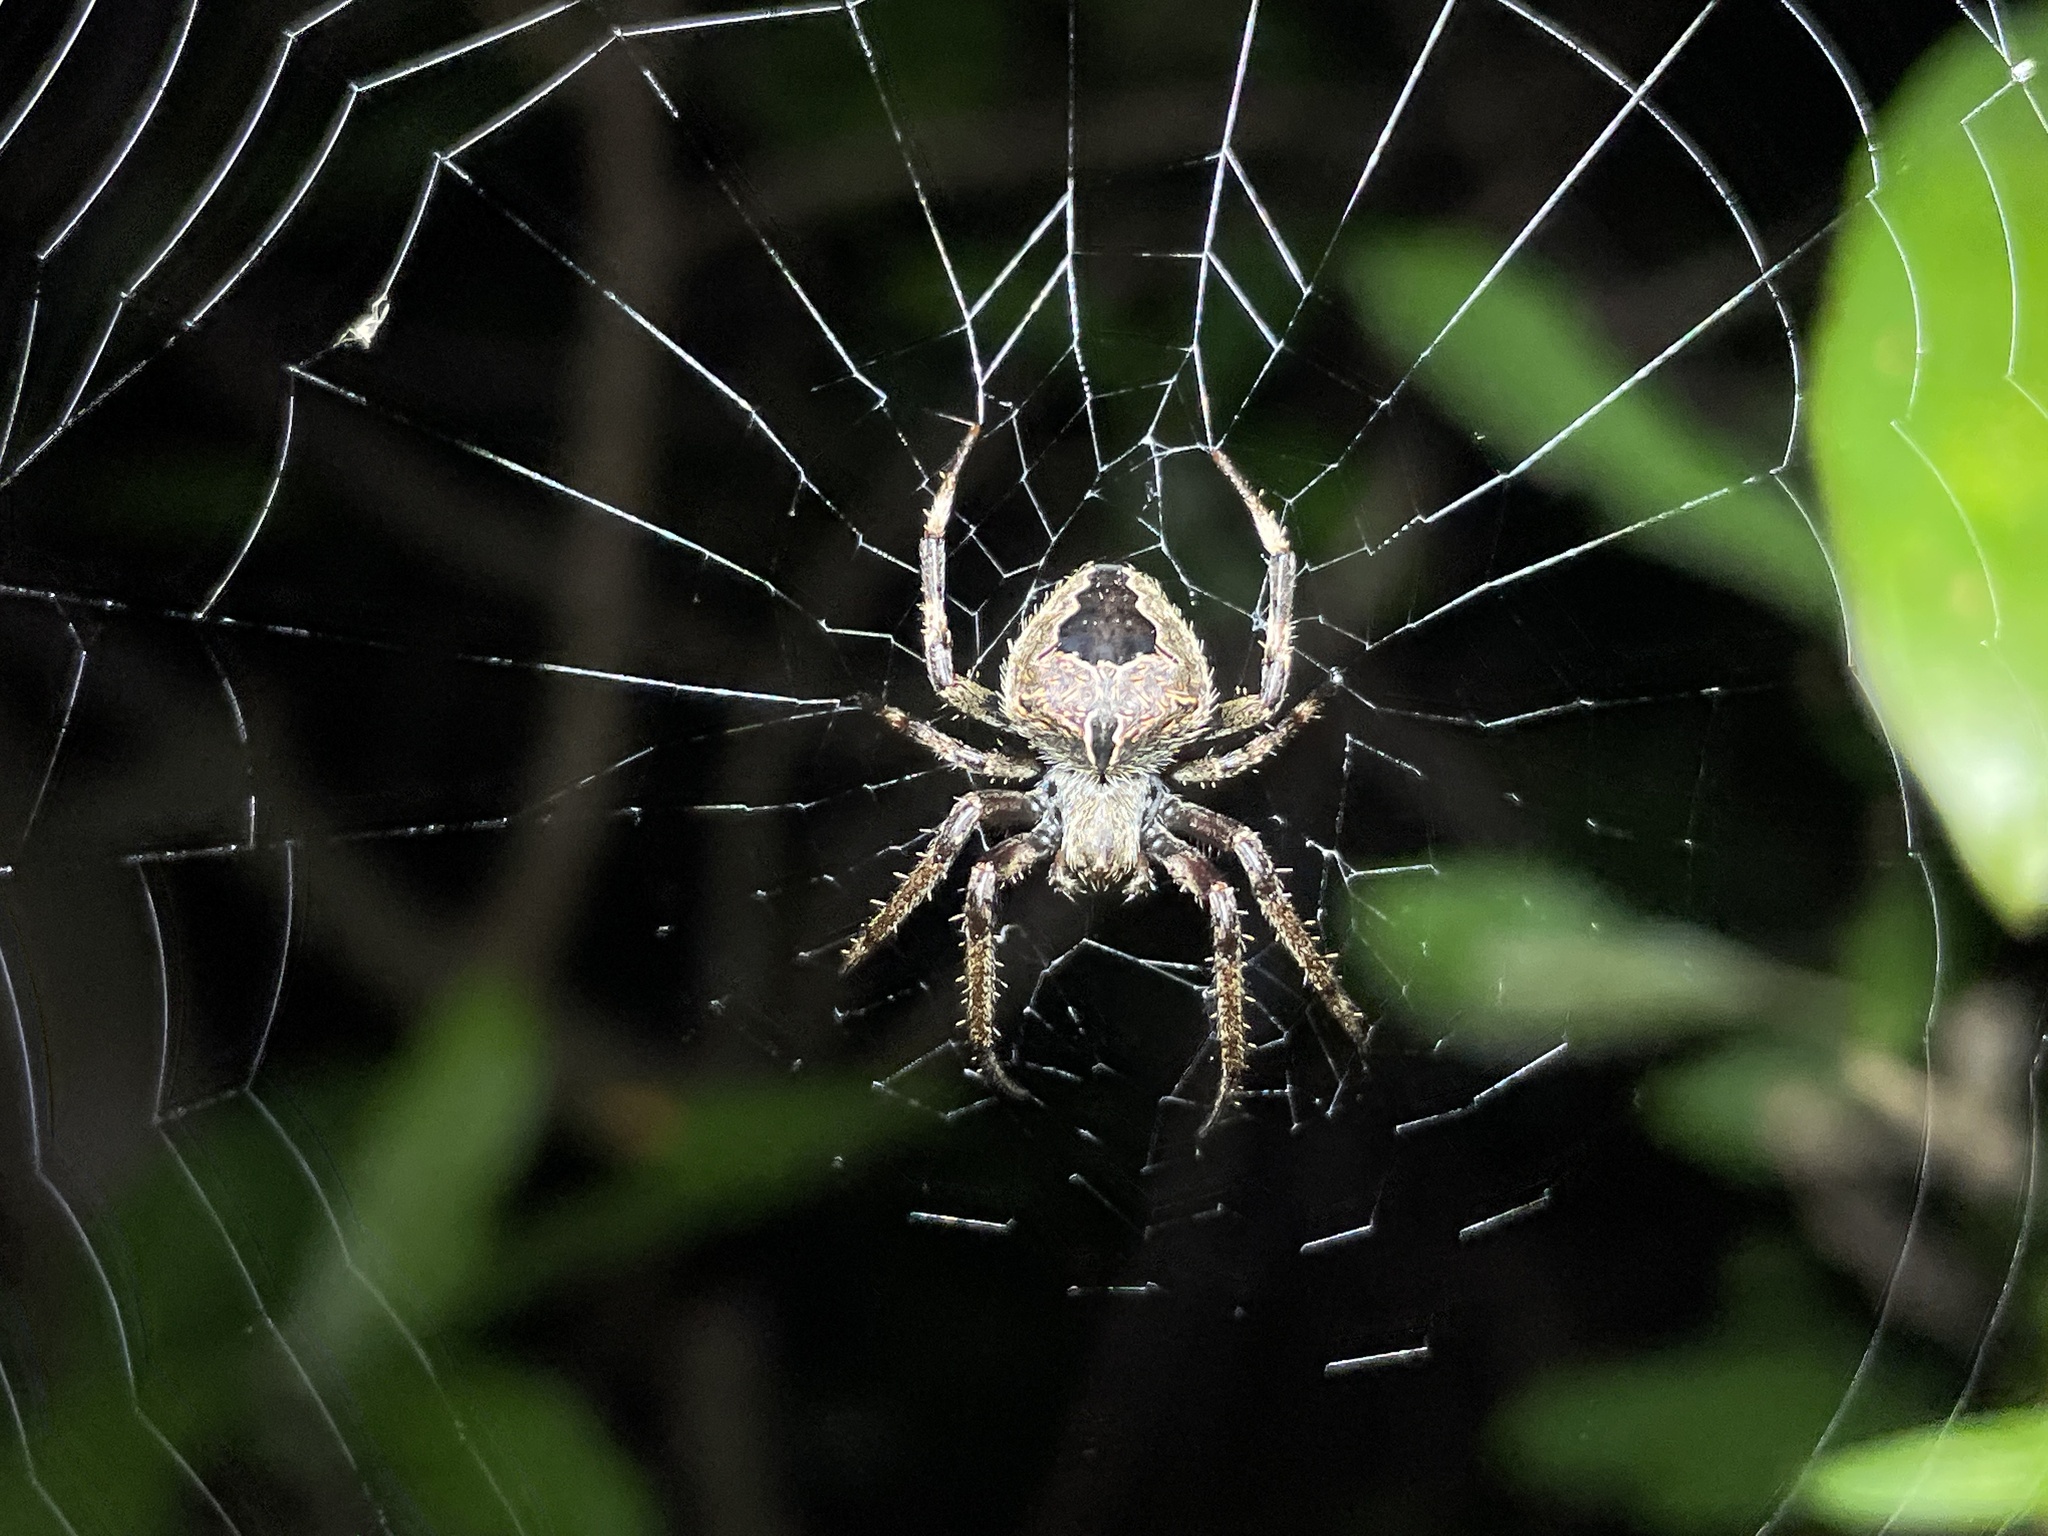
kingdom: Animalia
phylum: Arthropoda
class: Arachnida
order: Araneae
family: Araneidae
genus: Neoscona
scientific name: Neoscona vigilans
